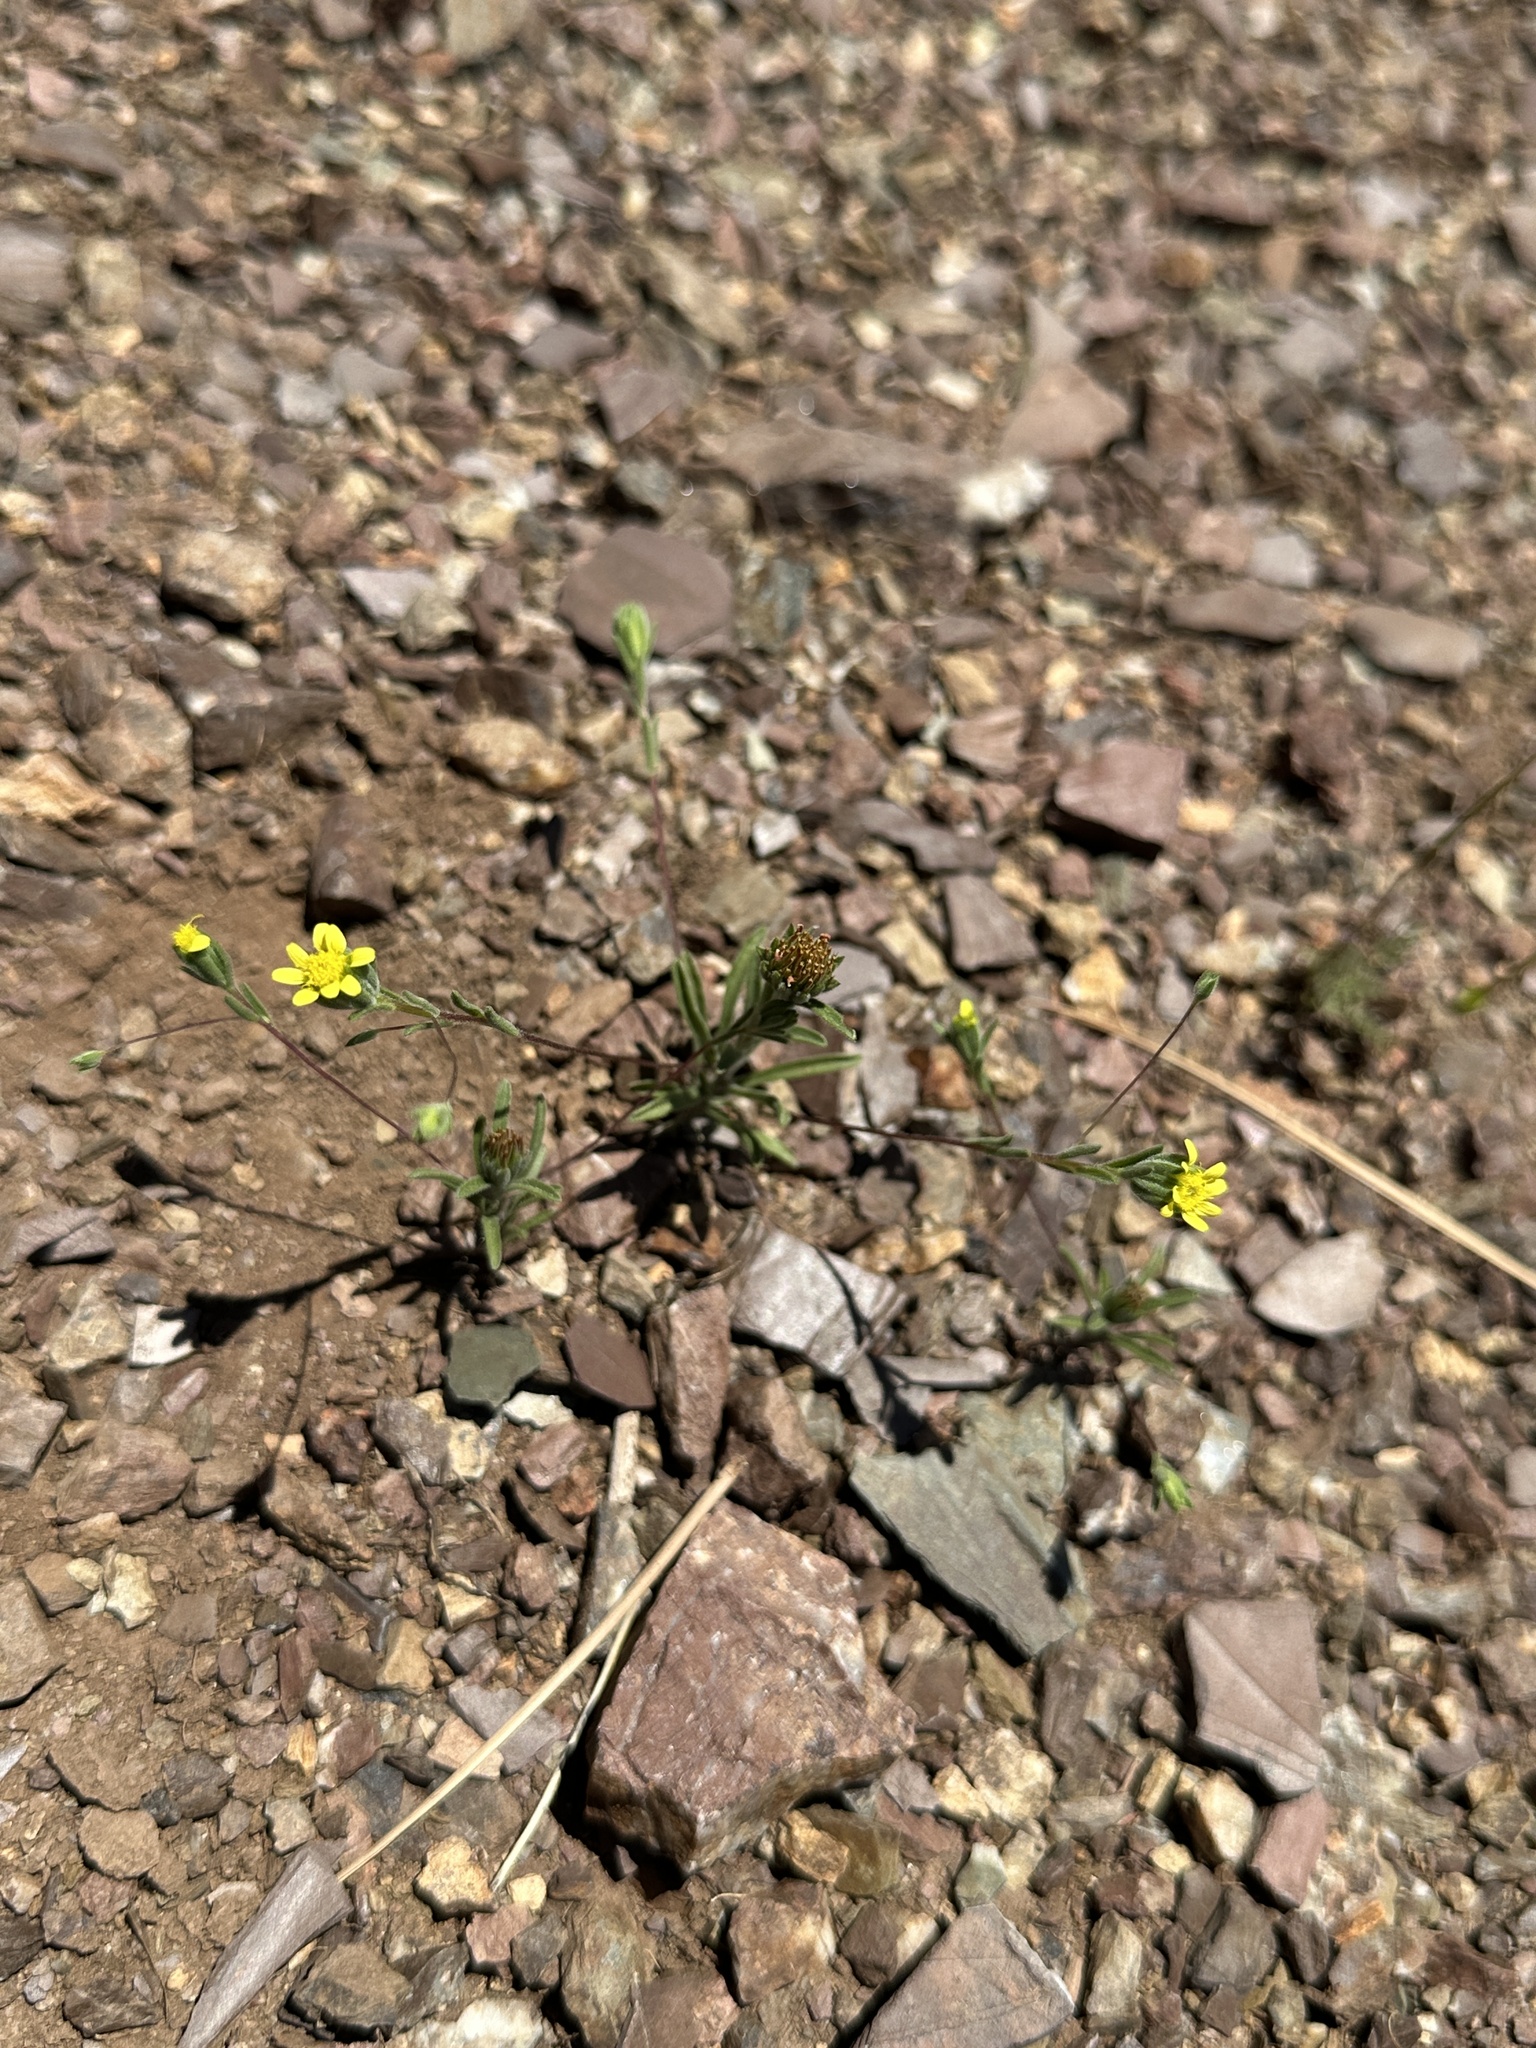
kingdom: Plantae
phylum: Tracheophyta
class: Magnoliopsida
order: Asterales
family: Asteraceae
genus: Rigiopappus
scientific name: Rigiopappus leptocladus
